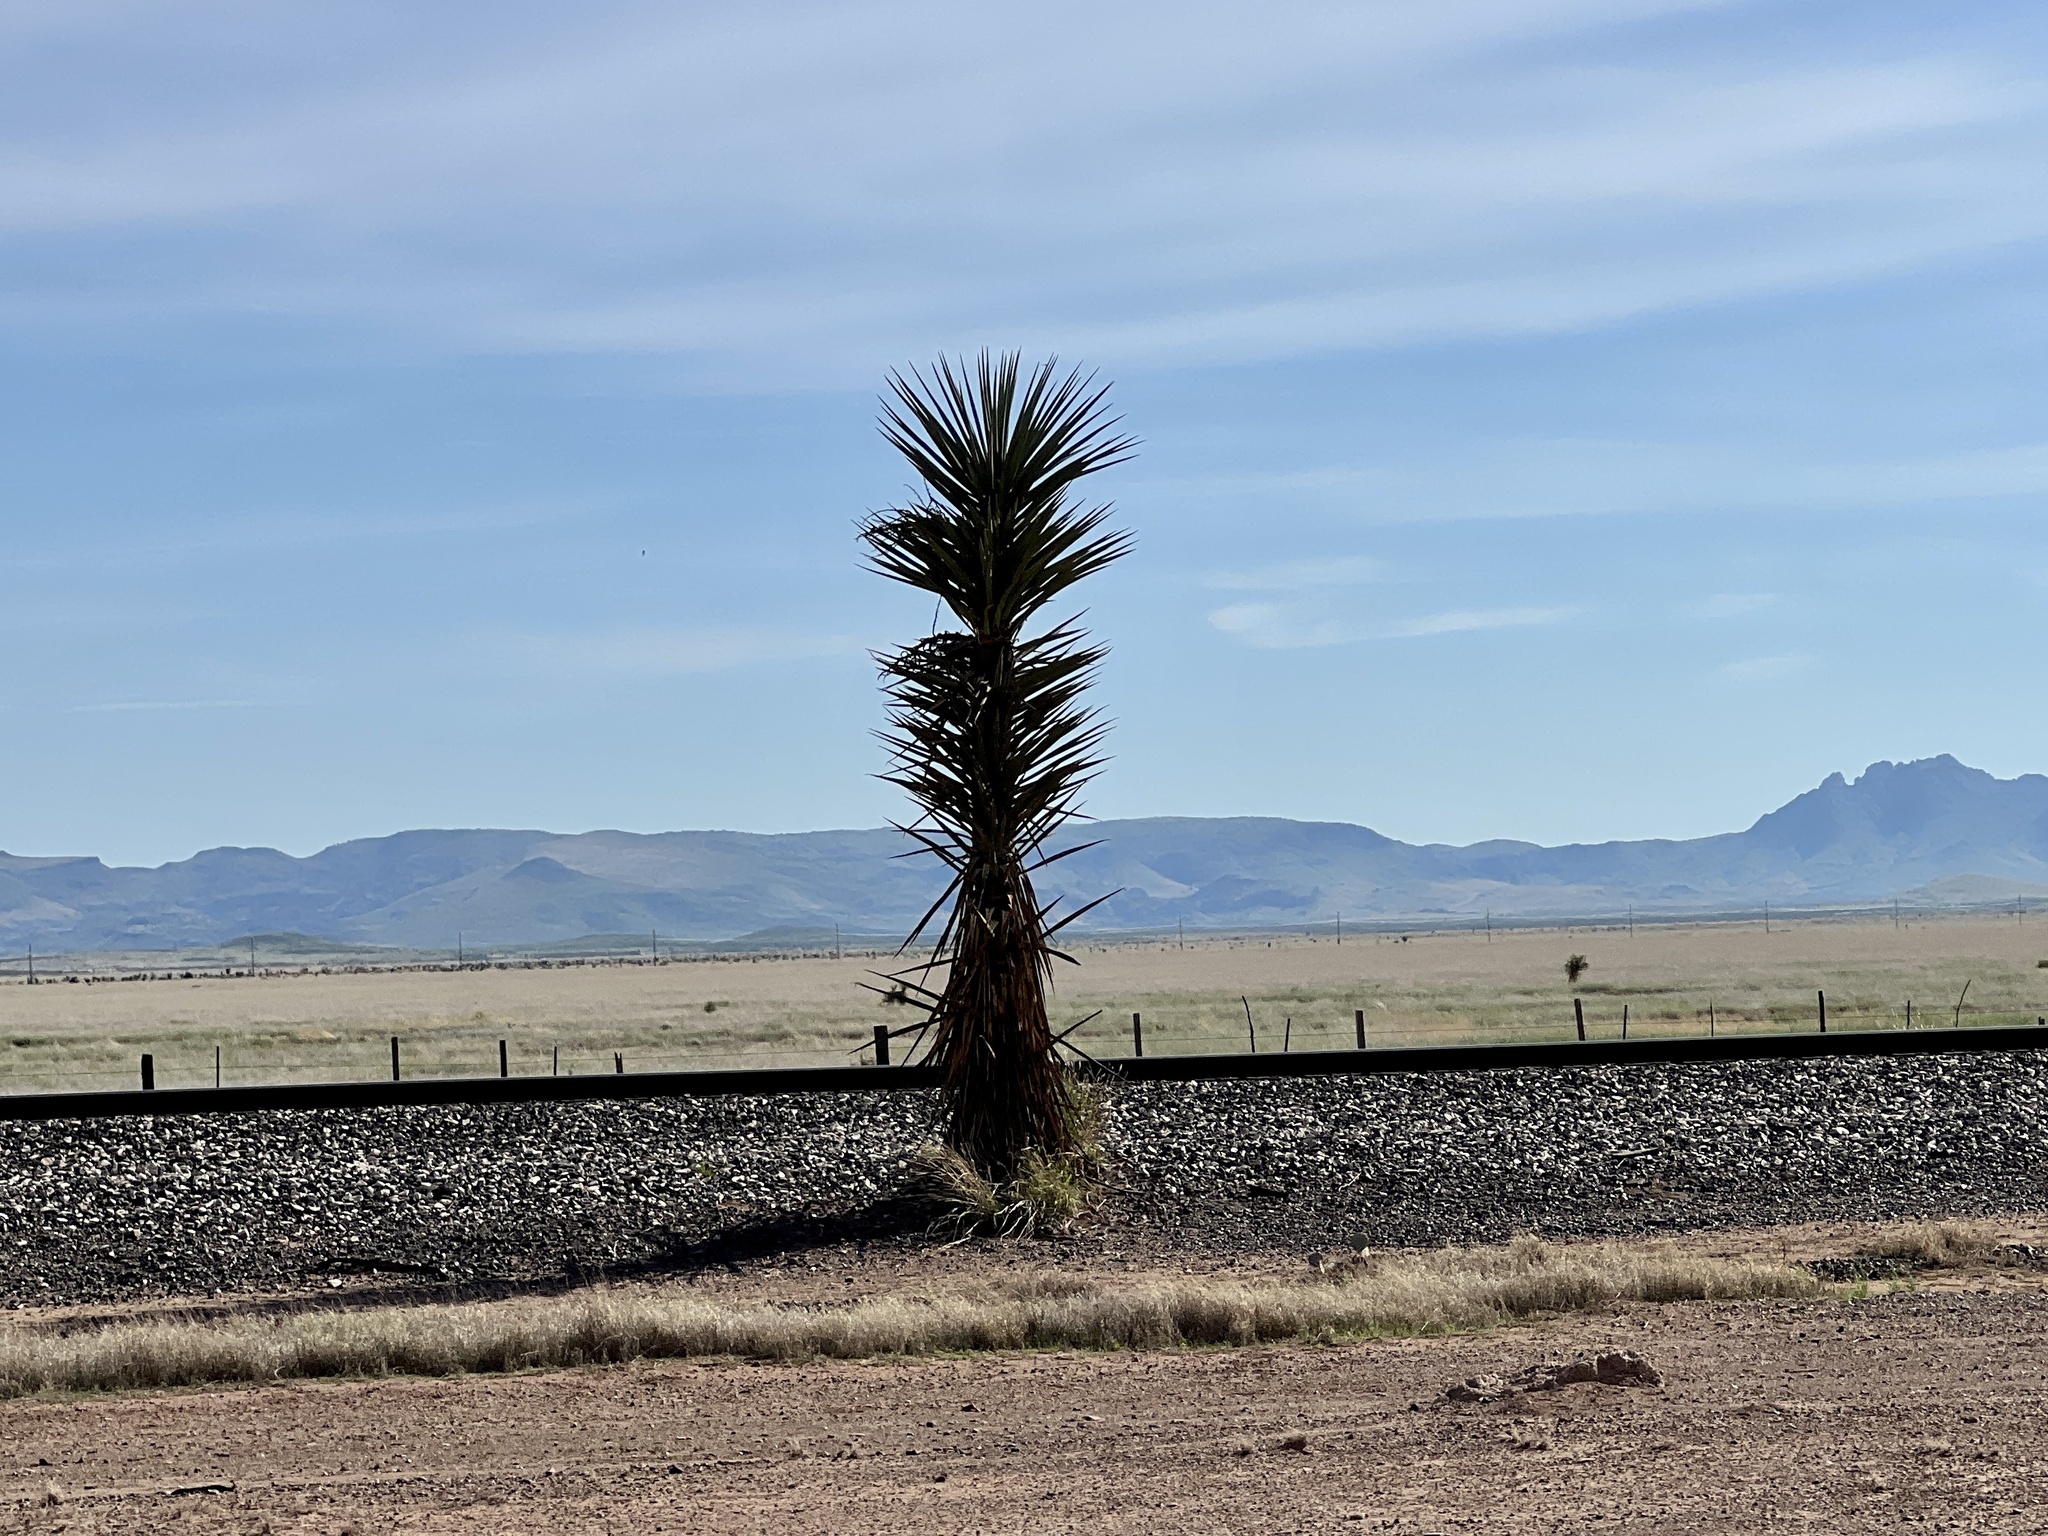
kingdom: Plantae
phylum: Tracheophyta
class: Liliopsida
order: Asparagales
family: Asparagaceae
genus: Yucca
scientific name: Yucca treculiana
